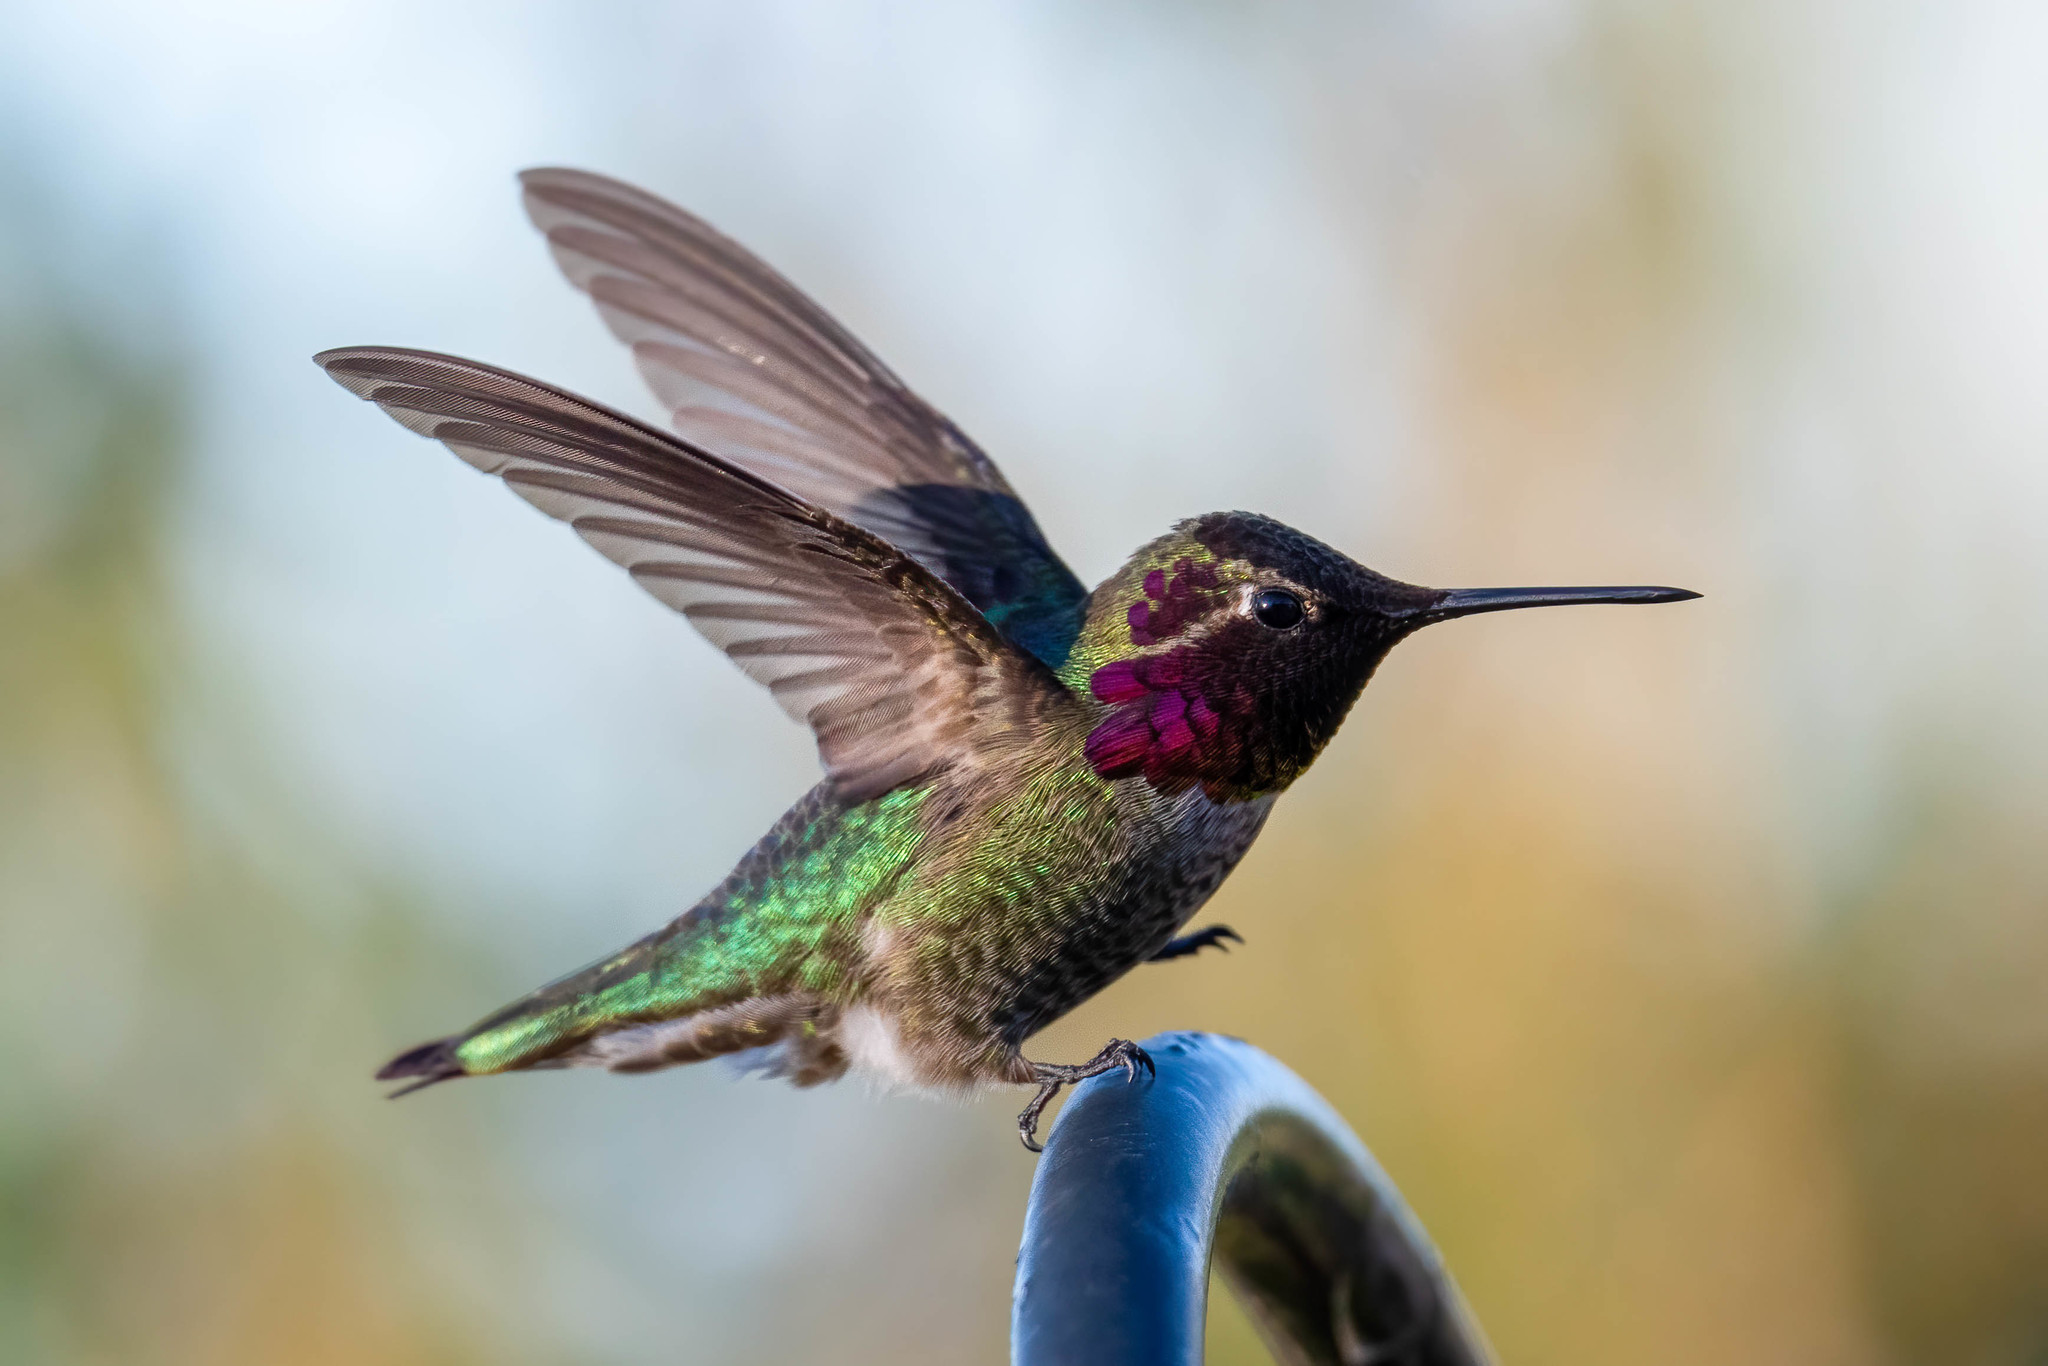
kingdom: Animalia
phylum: Chordata
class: Aves
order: Apodiformes
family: Trochilidae
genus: Calypte
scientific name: Calypte anna
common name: Anna's hummingbird
